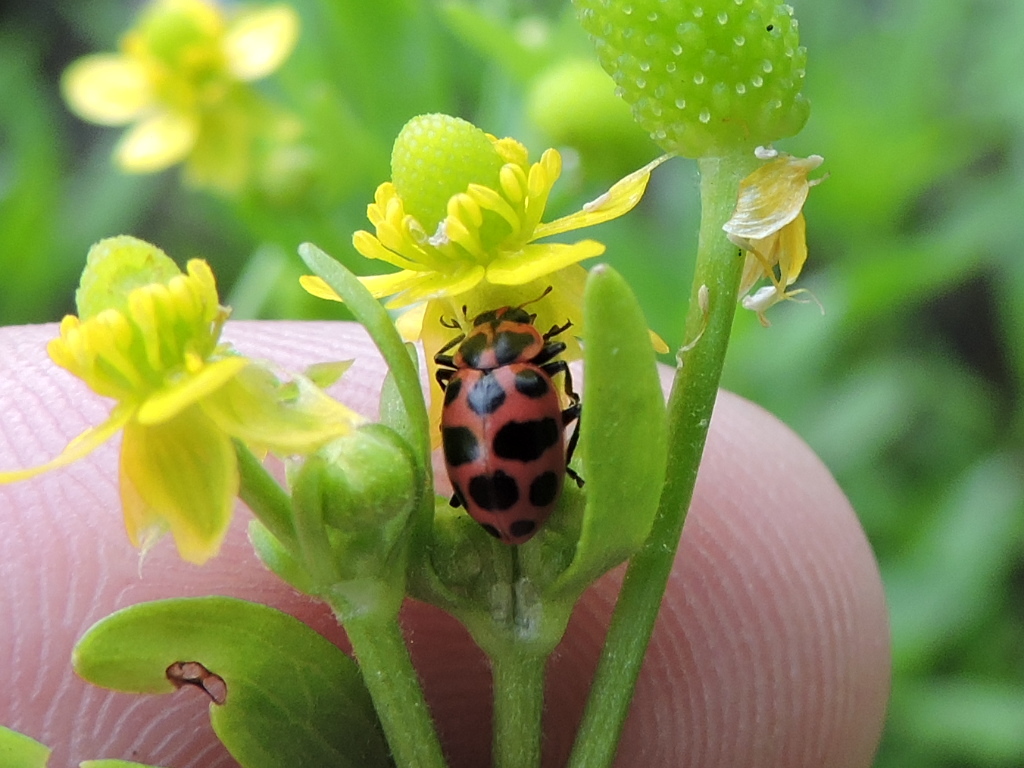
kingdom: Animalia
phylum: Arthropoda
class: Insecta
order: Coleoptera
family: Coccinellidae
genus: Coleomegilla
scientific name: Coleomegilla maculata
